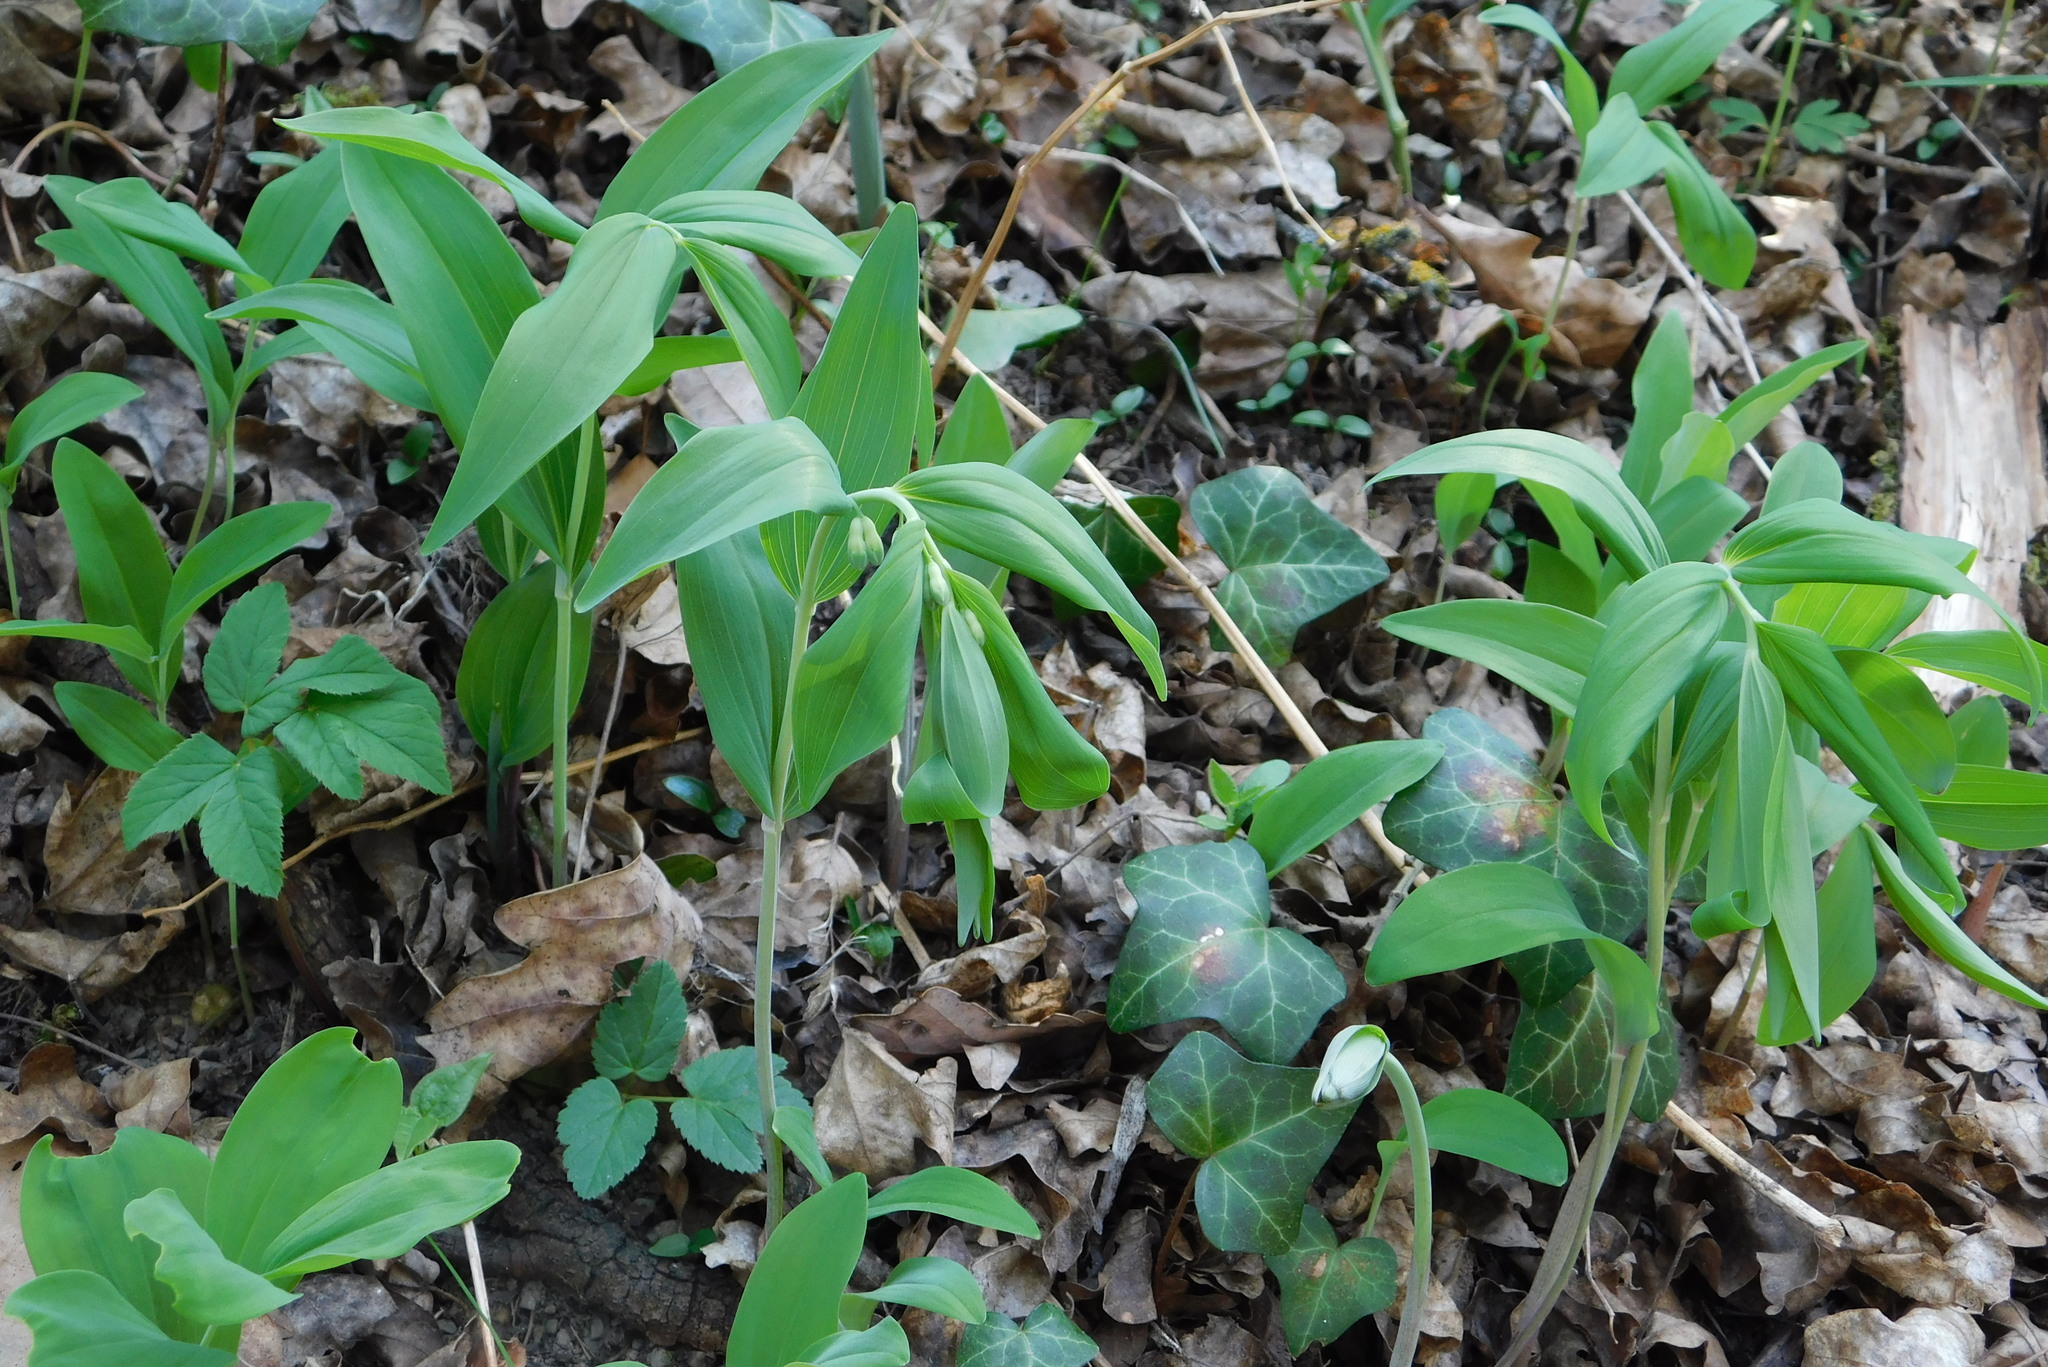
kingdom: Plantae
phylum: Tracheophyta
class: Liliopsida
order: Asparagales
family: Asparagaceae
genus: Polygonatum
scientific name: Polygonatum multiflorum
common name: Solomon's-seal
